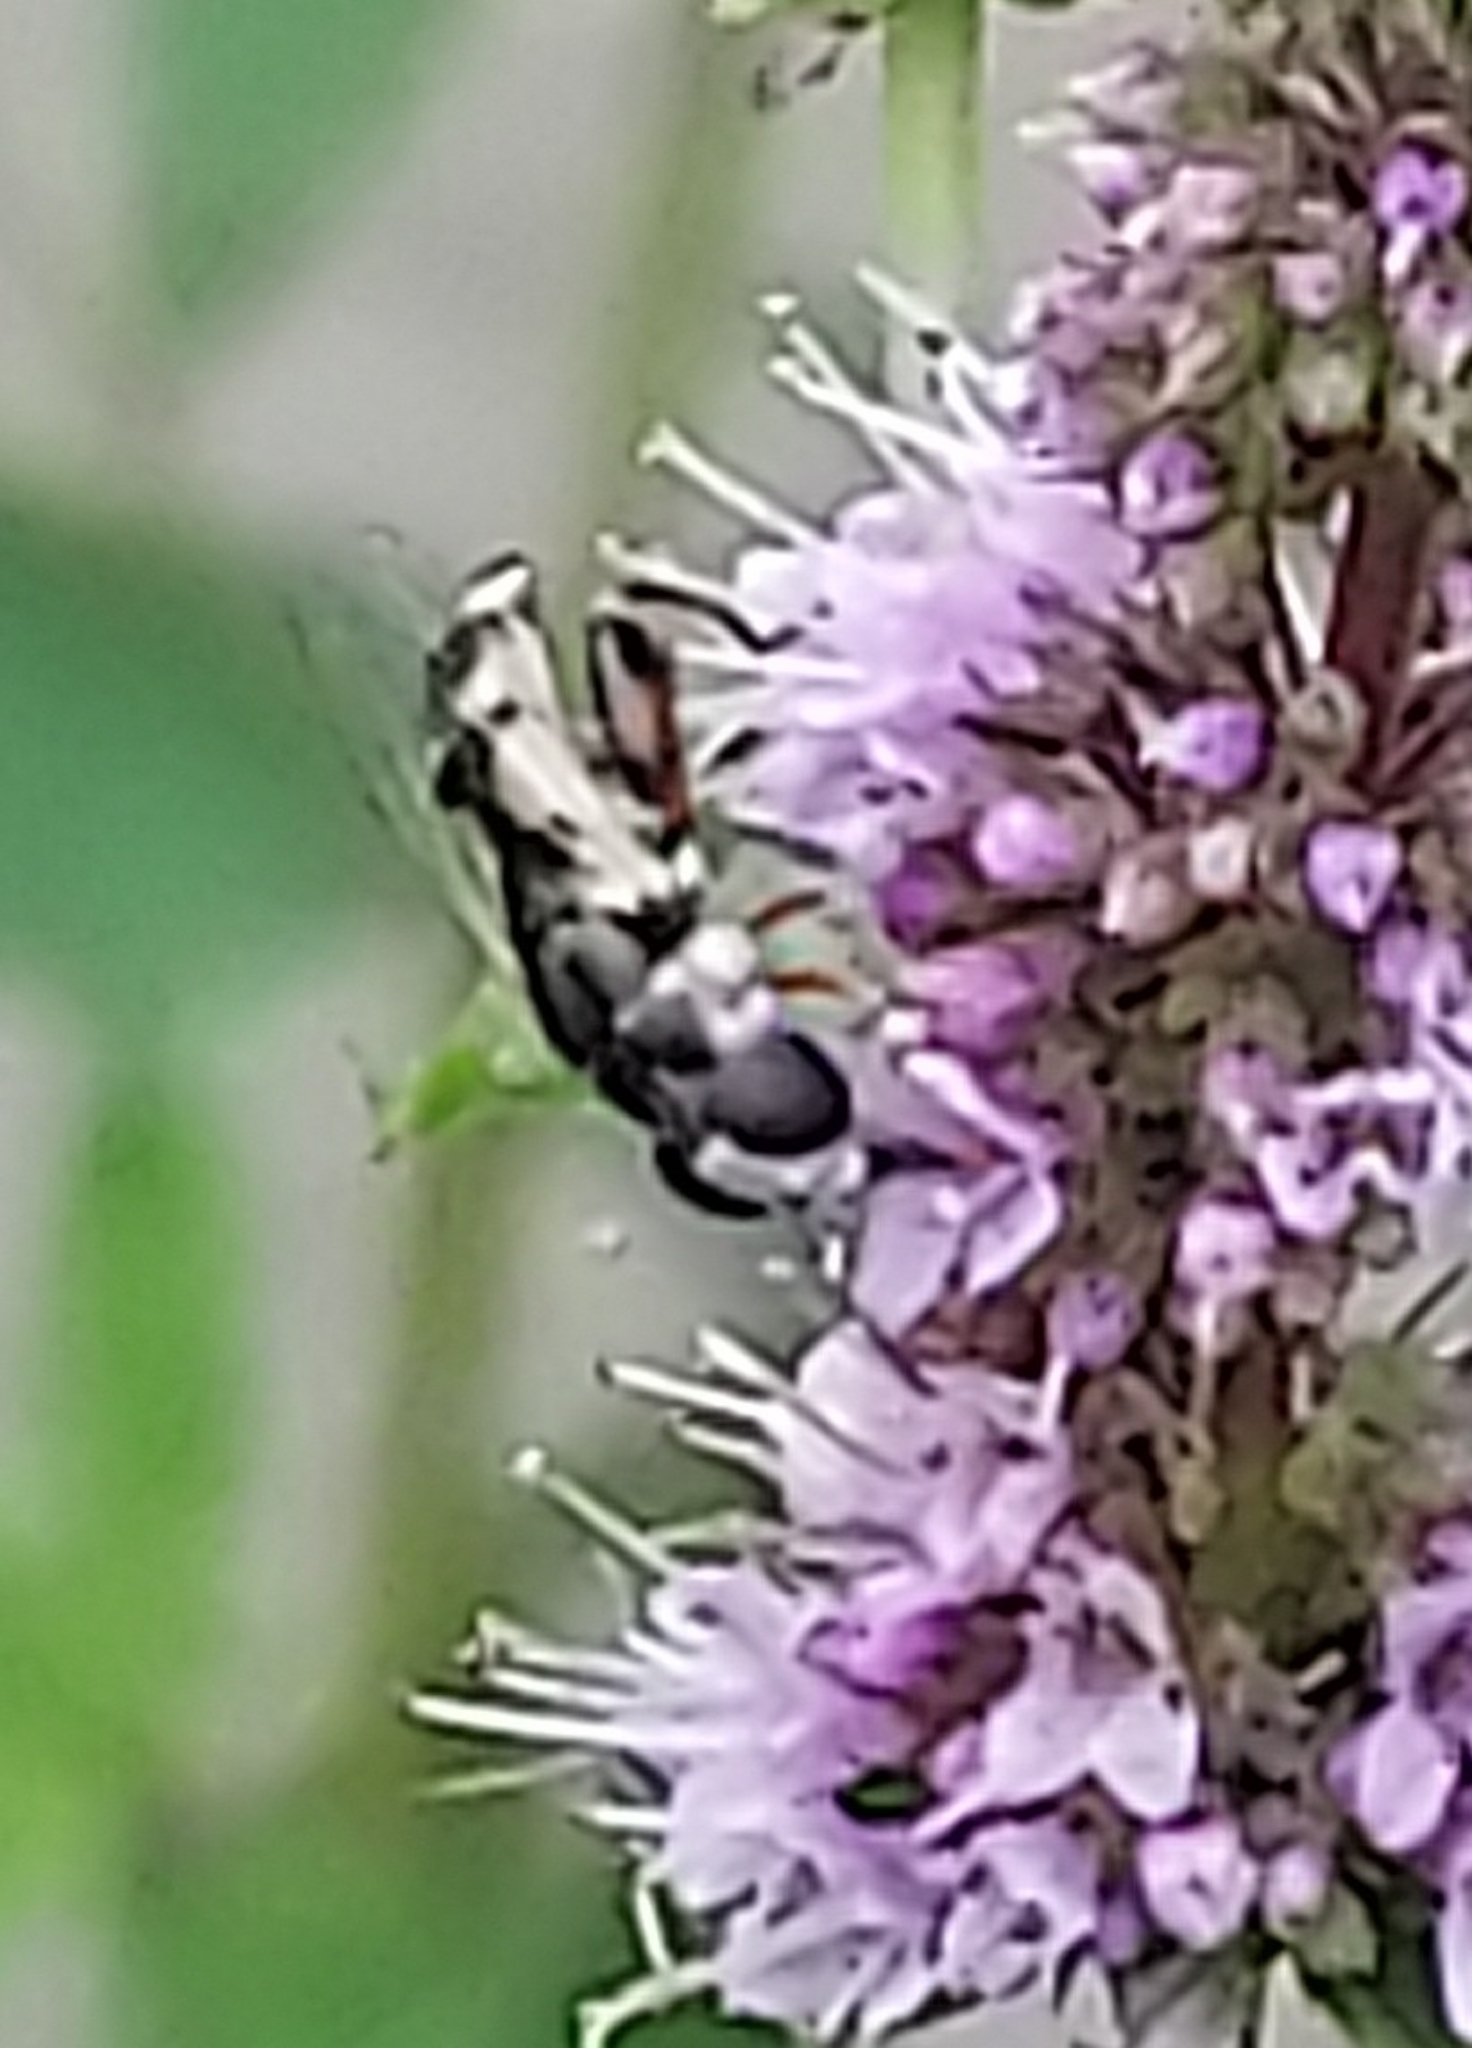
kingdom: Animalia
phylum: Arthropoda
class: Insecta
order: Diptera
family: Syrphidae
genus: Syritta
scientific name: Syritta flaviventris
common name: Syrphid fly
